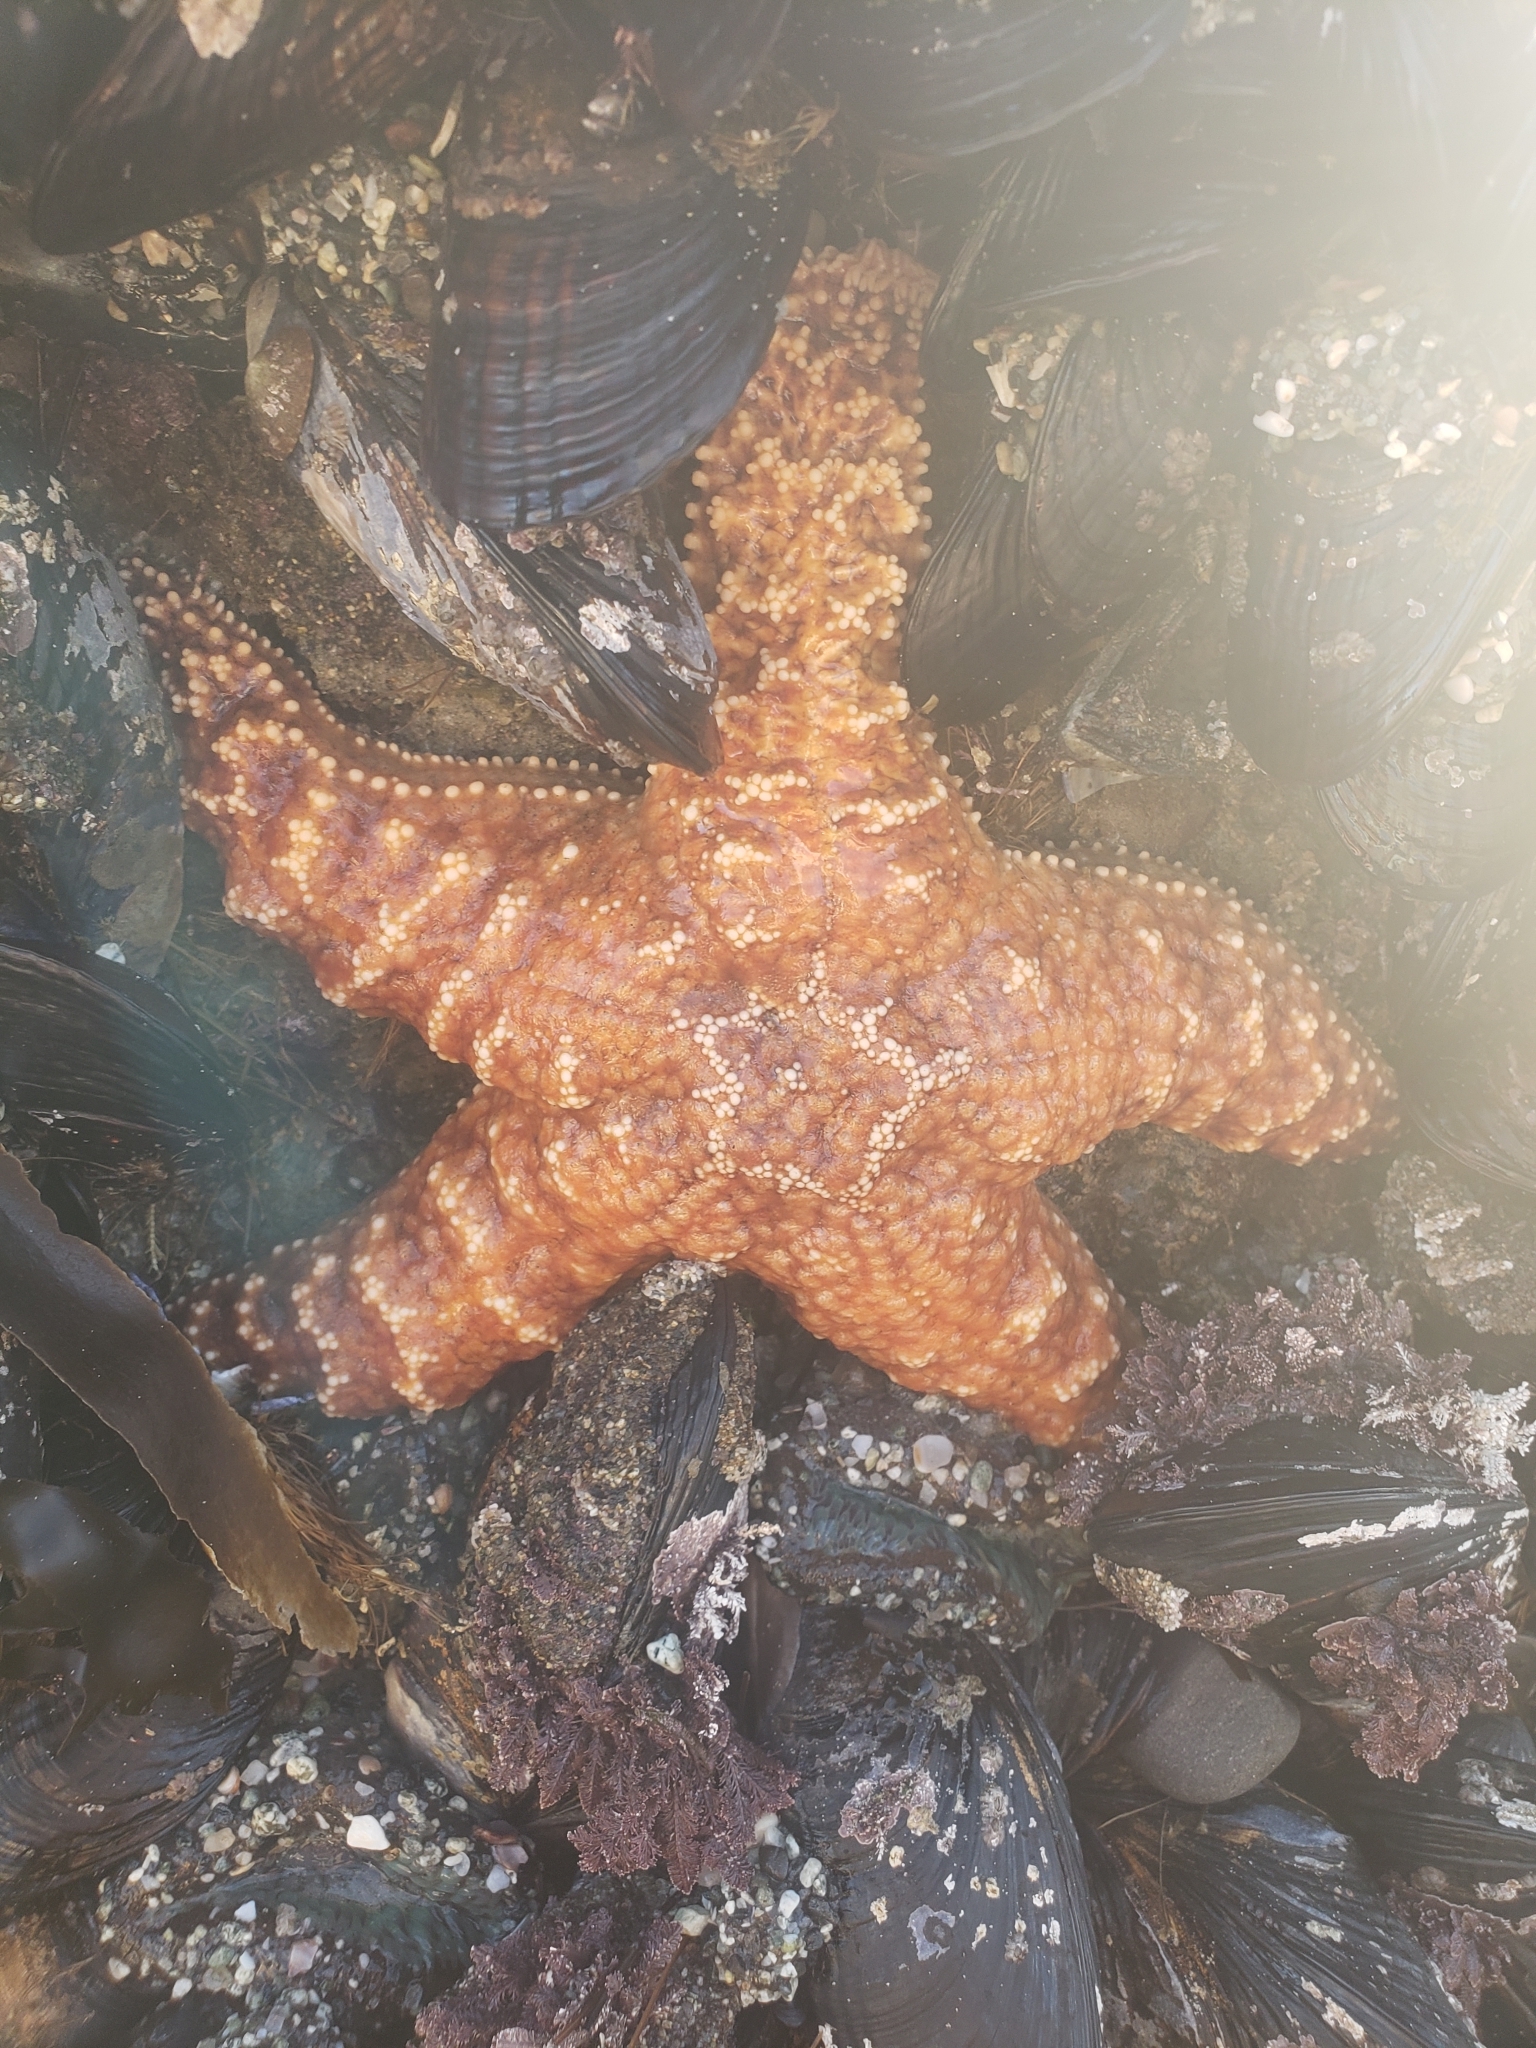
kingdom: Animalia
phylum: Echinodermata
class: Asteroidea
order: Forcipulatida
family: Asteriidae
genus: Pisaster
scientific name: Pisaster ochraceus
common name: Ochre stars
